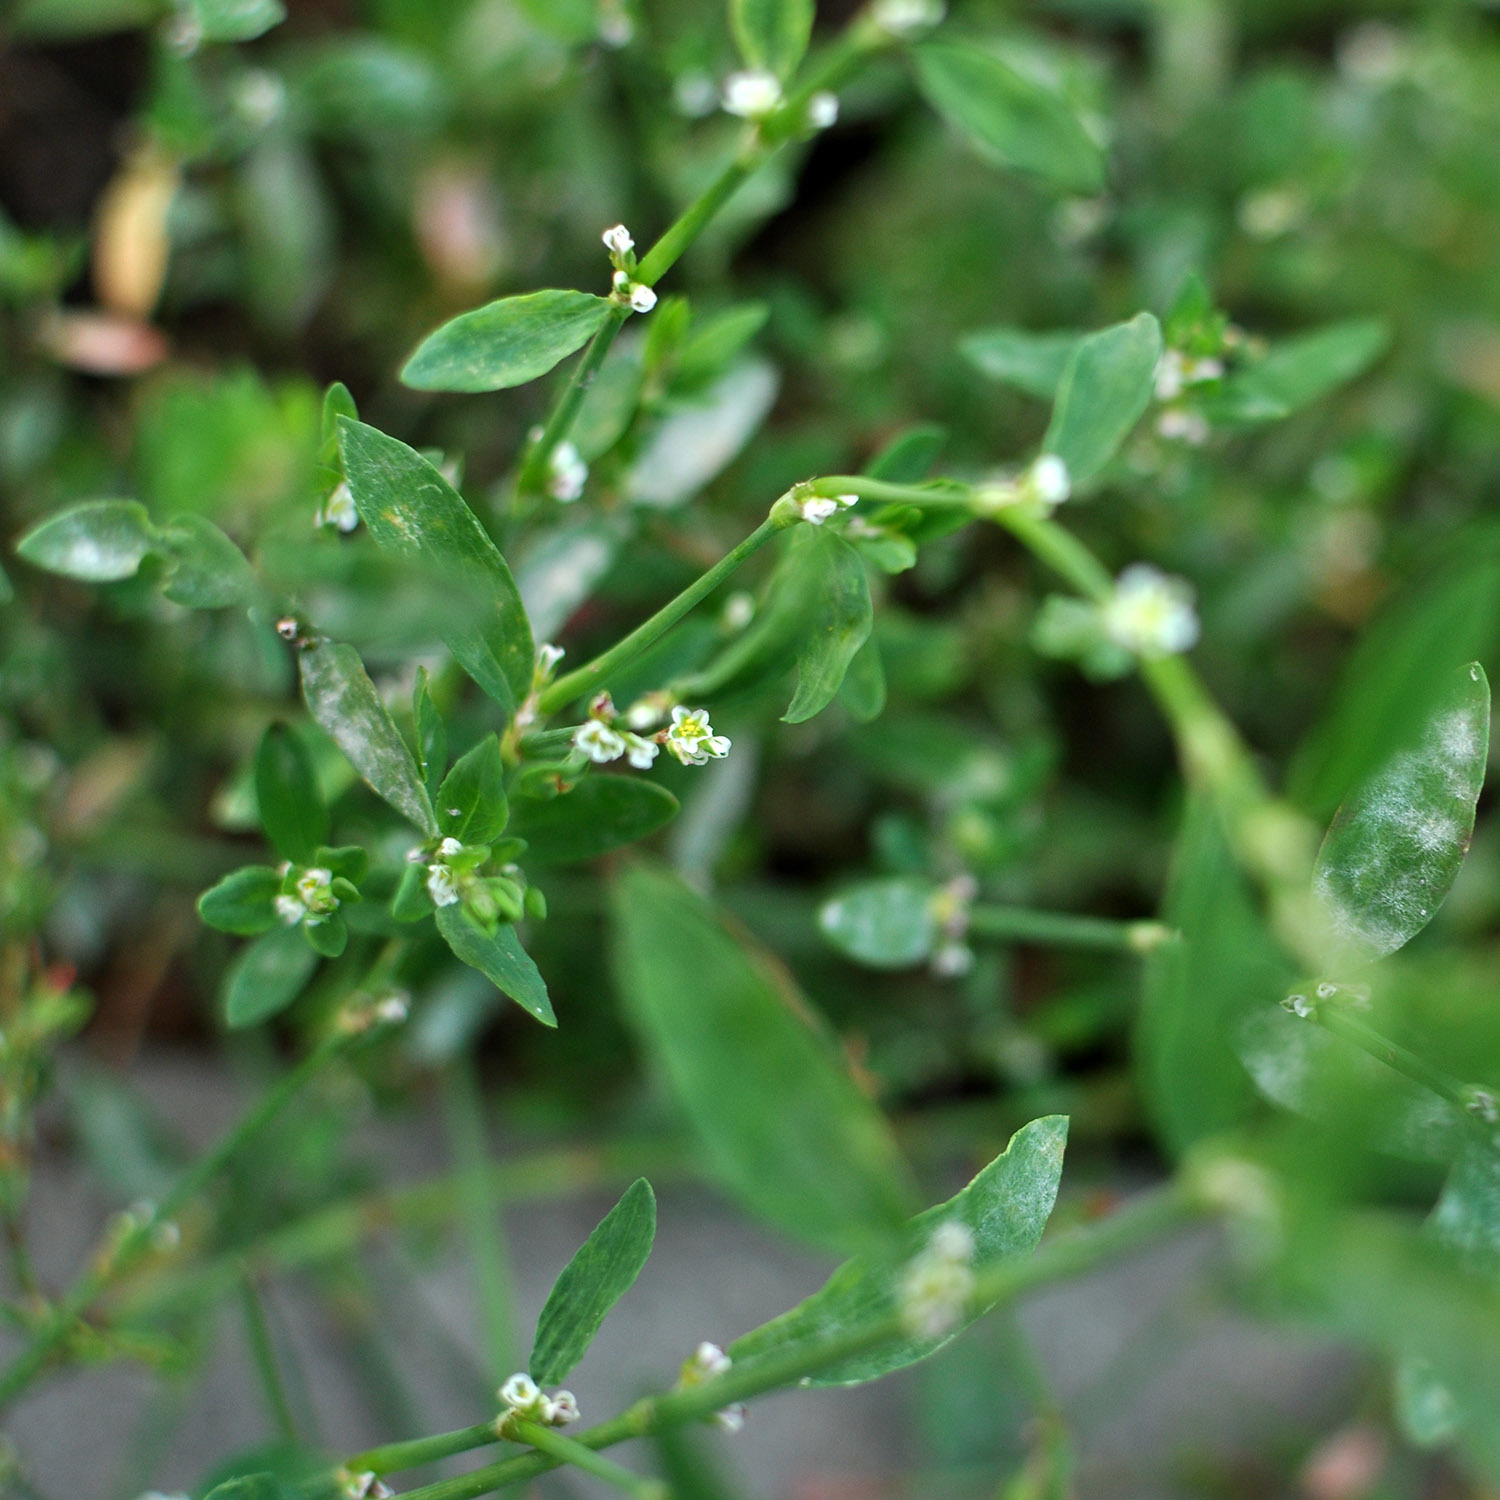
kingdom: Plantae
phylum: Tracheophyta
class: Magnoliopsida
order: Caryophyllales
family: Polygonaceae
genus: Polygonum
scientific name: Polygonum aviculare
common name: Prostrate knotweed
